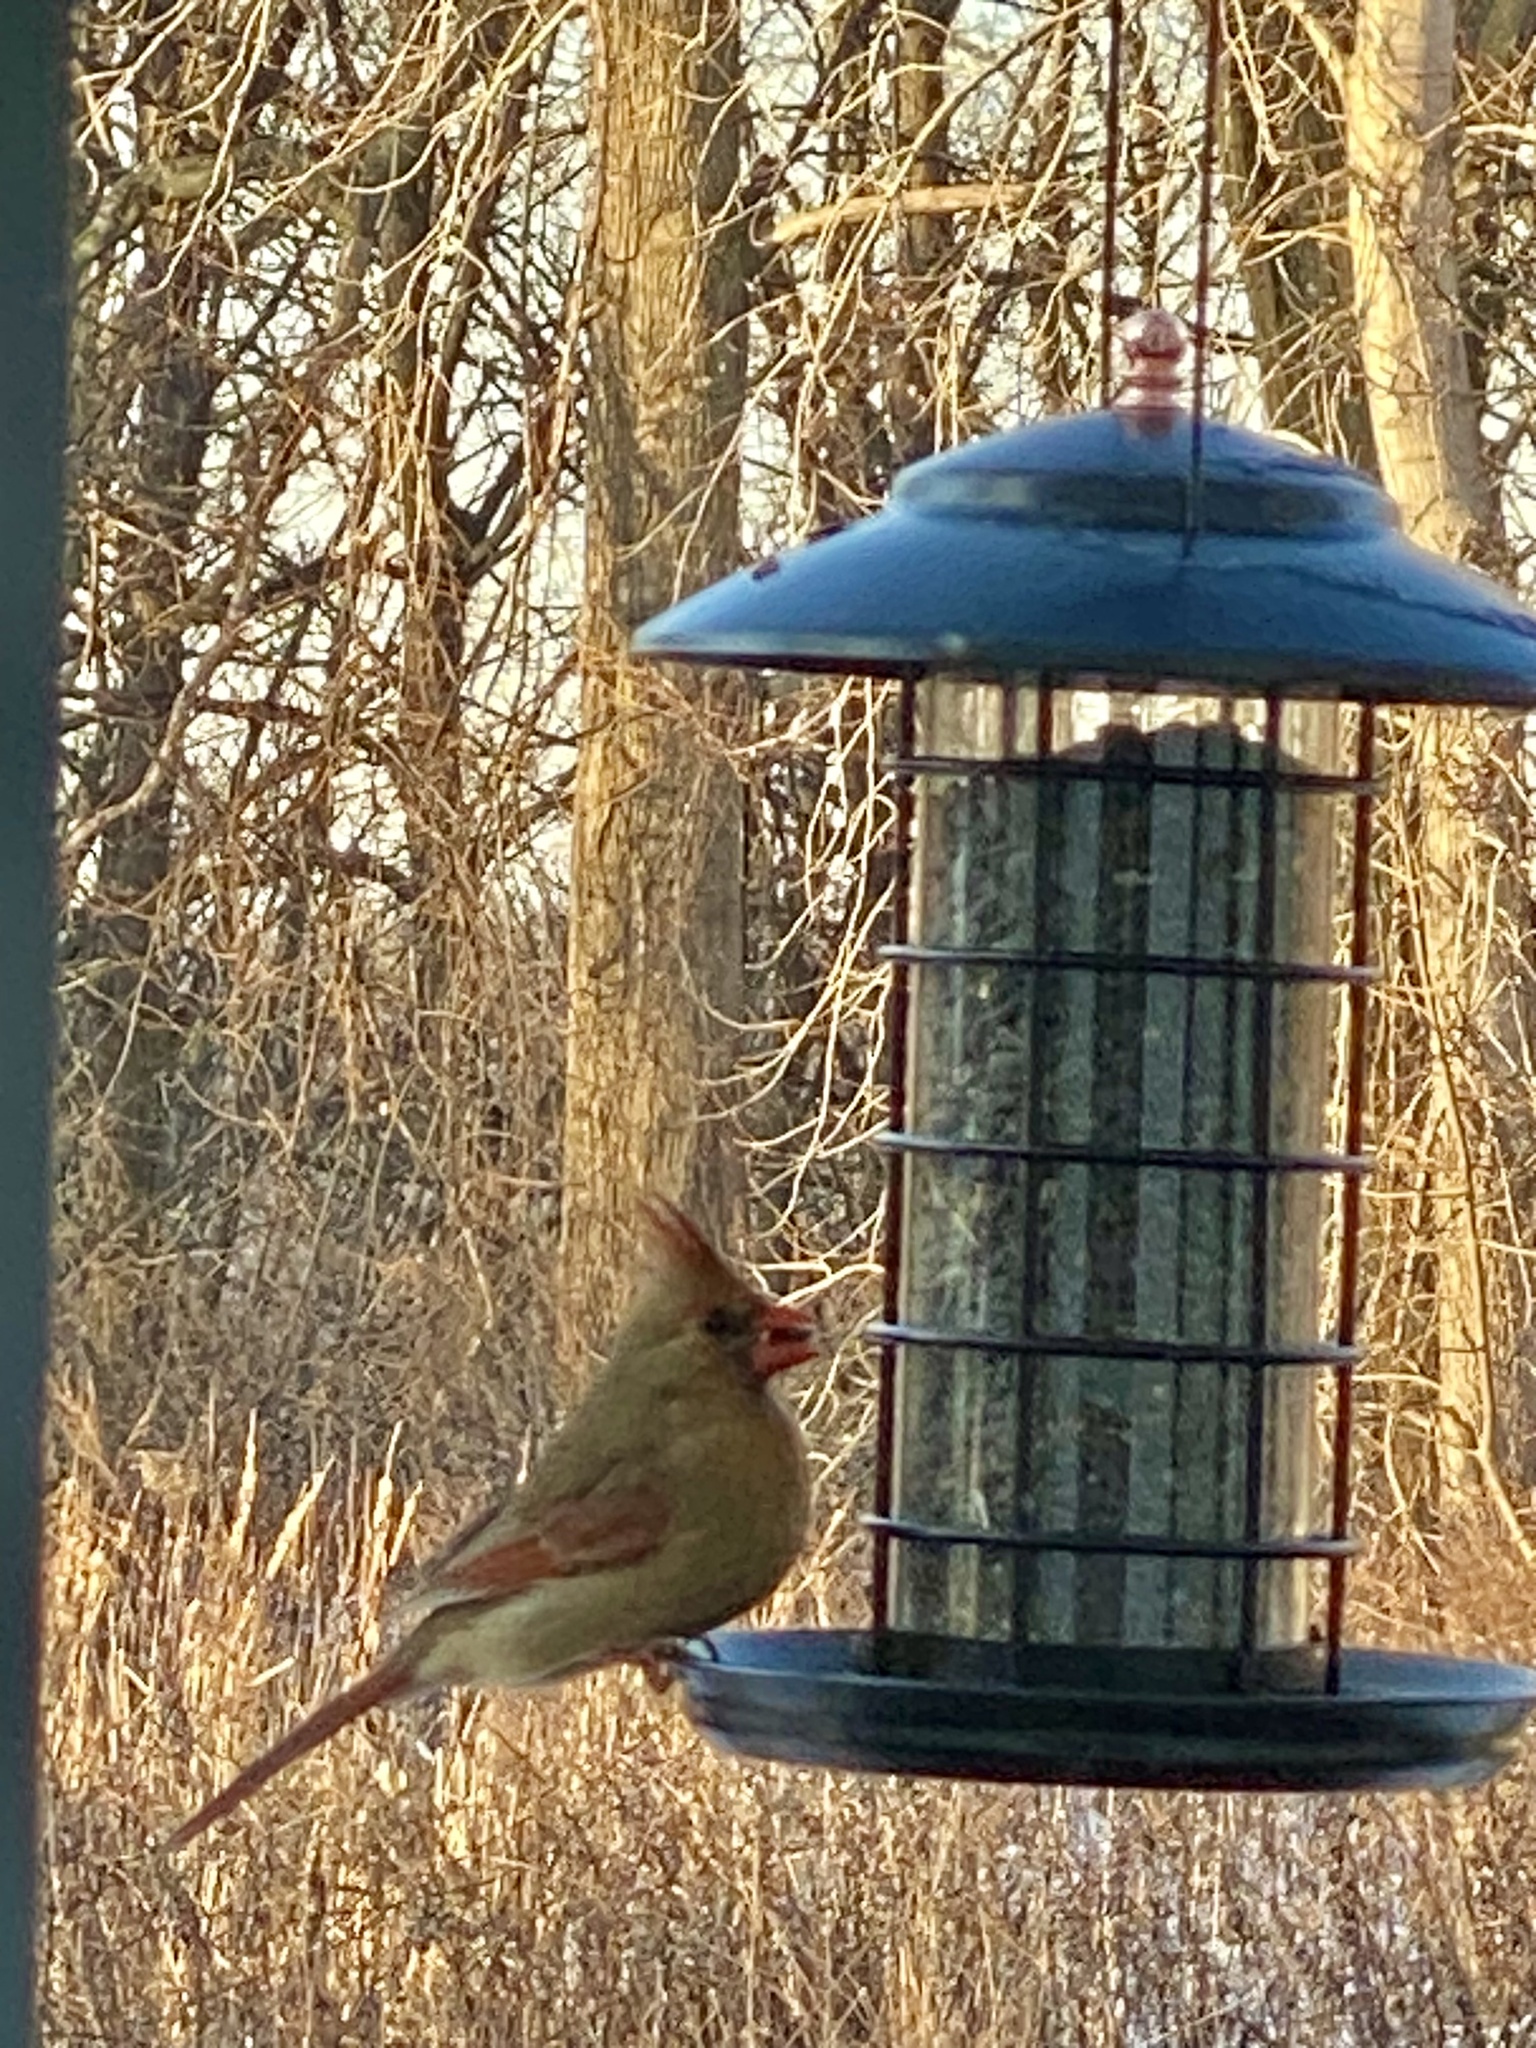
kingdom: Animalia
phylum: Chordata
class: Aves
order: Passeriformes
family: Cardinalidae
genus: Cardinalis
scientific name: Cardinalis cardinalis
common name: Northern cardinal
